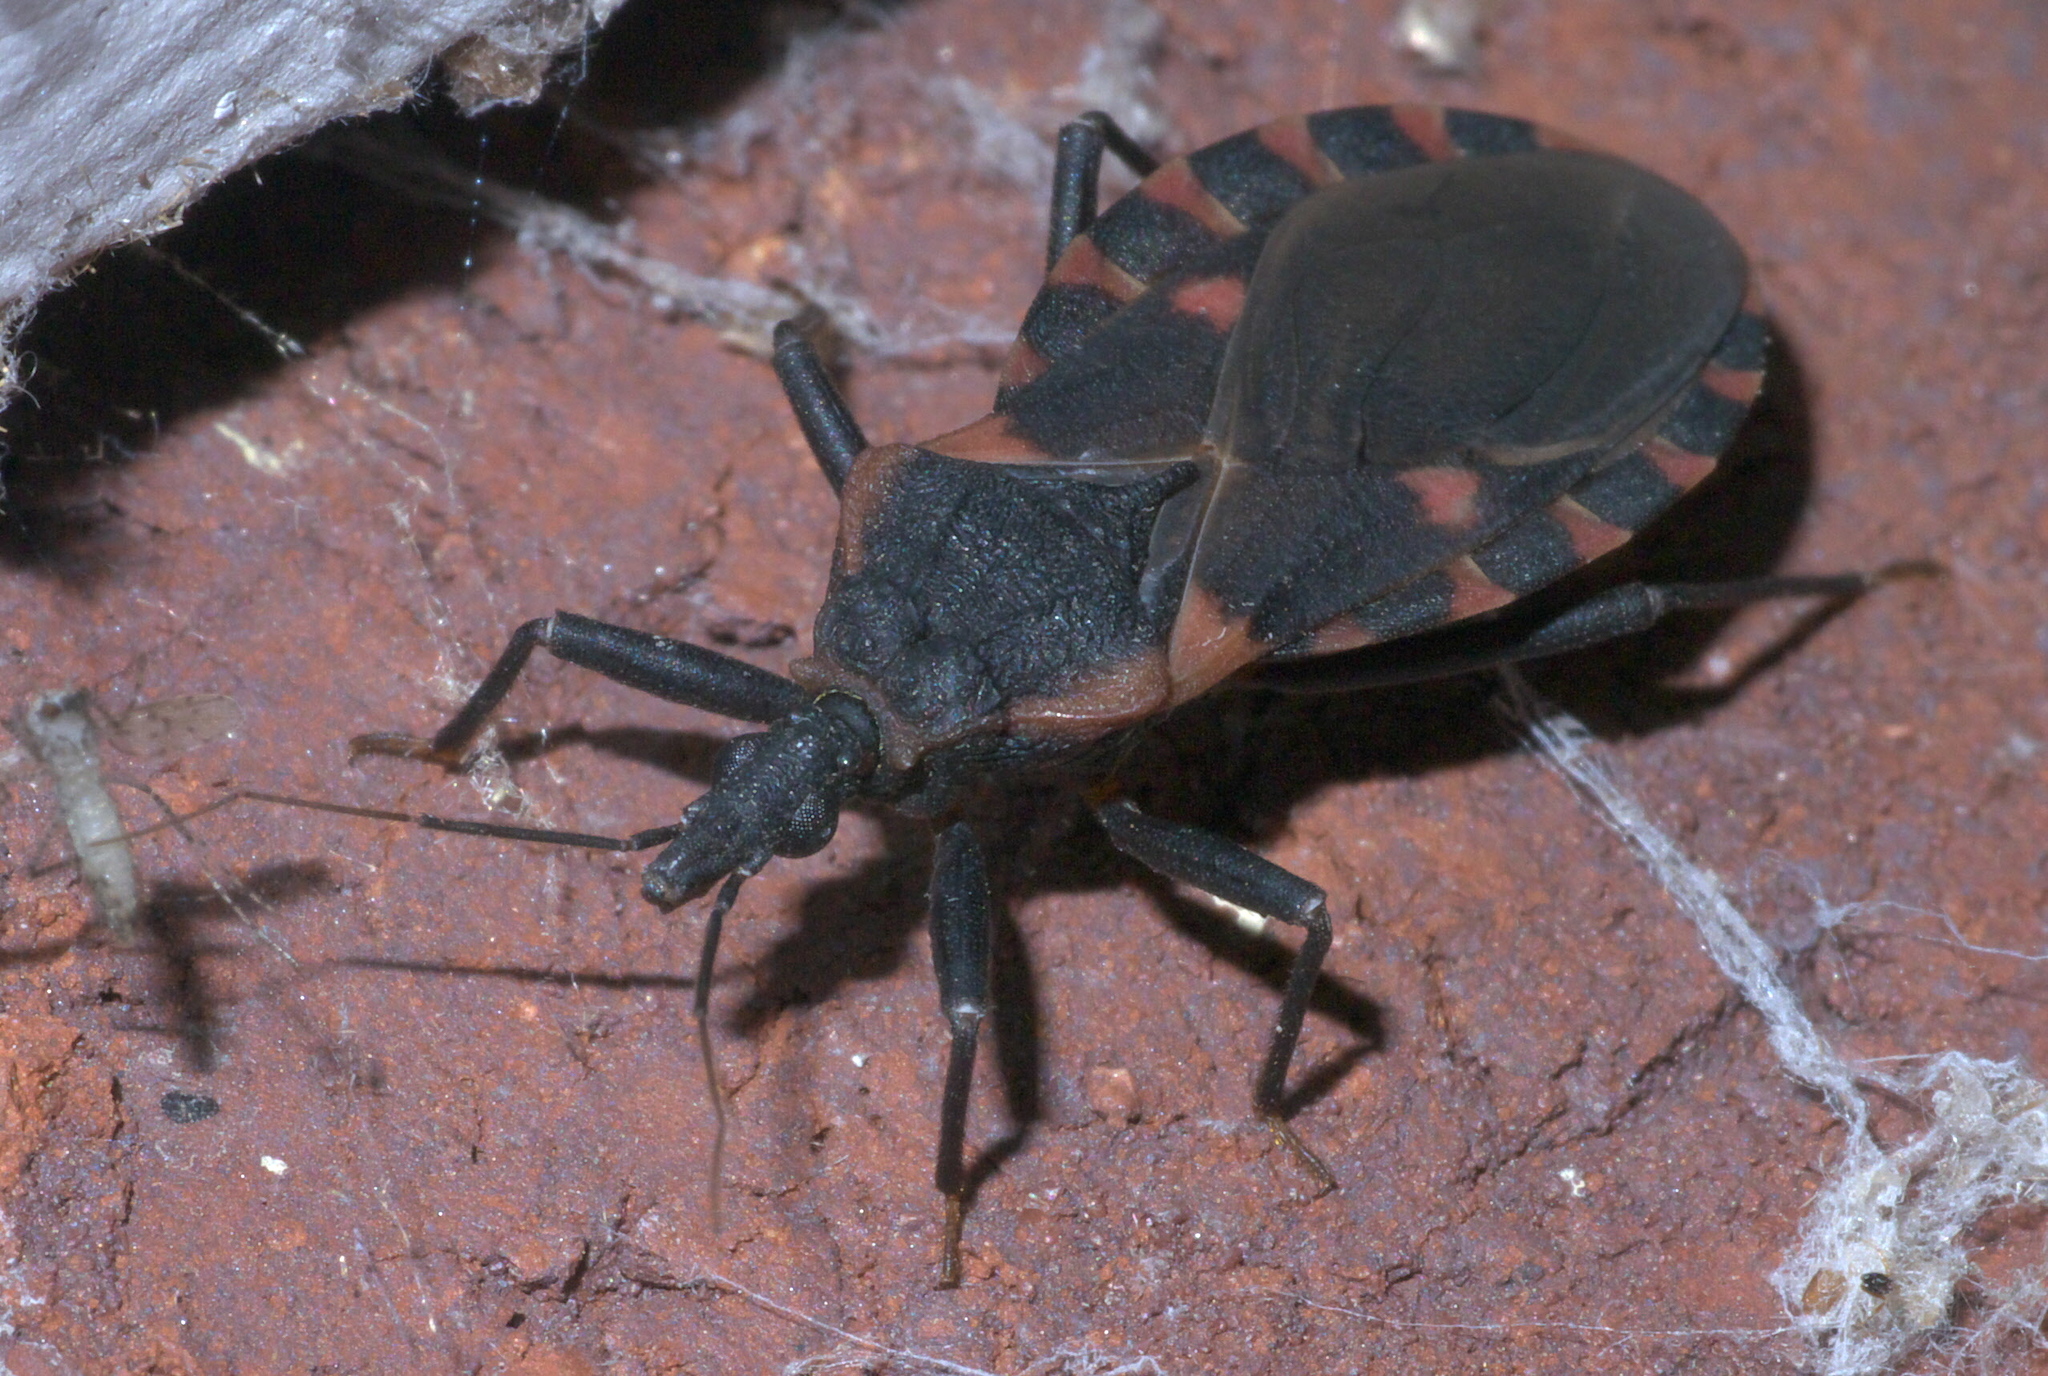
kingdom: Animalia
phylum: Arthropoda
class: Insecta
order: Hemiptera
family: Reduviidae
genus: Triatoma
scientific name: Triatoma sanguisuga
